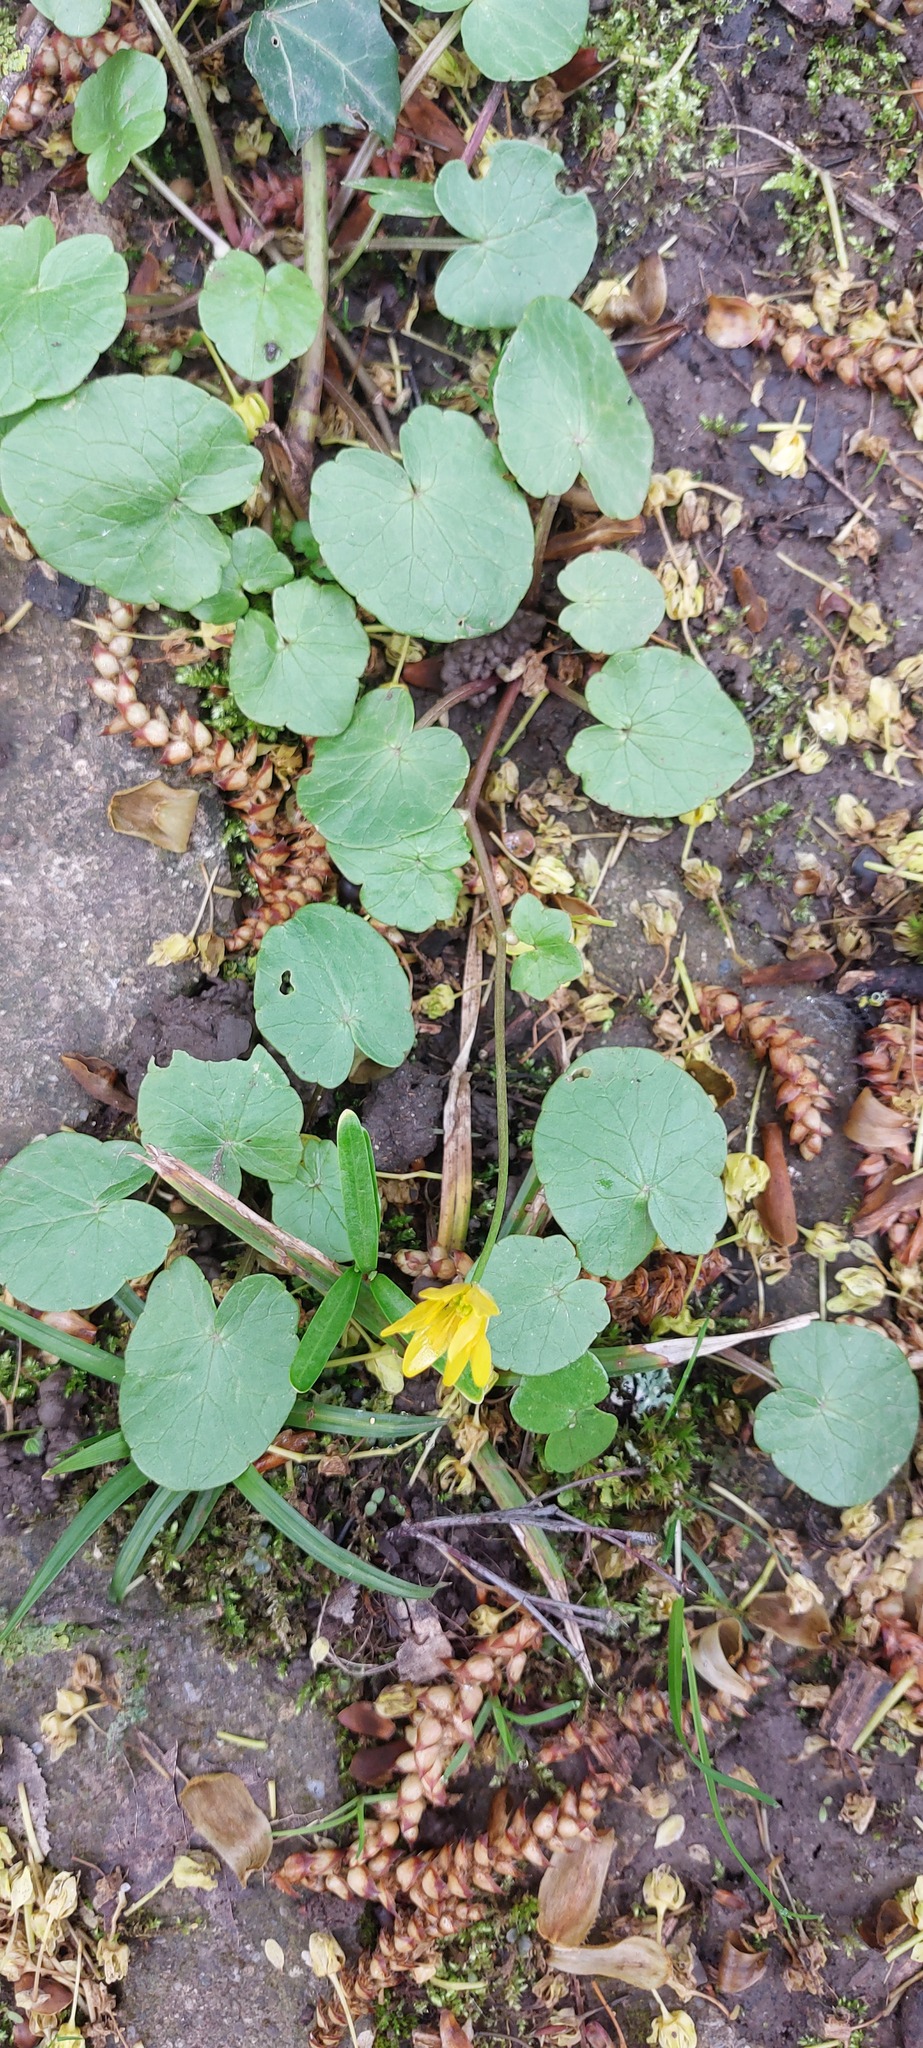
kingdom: Plantae
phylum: Tracheophyta
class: Magnoliopsida
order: Ranunculales
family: Ranunculaceae
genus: Ficaria
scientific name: Ficaria verna
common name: Lesser celandine
